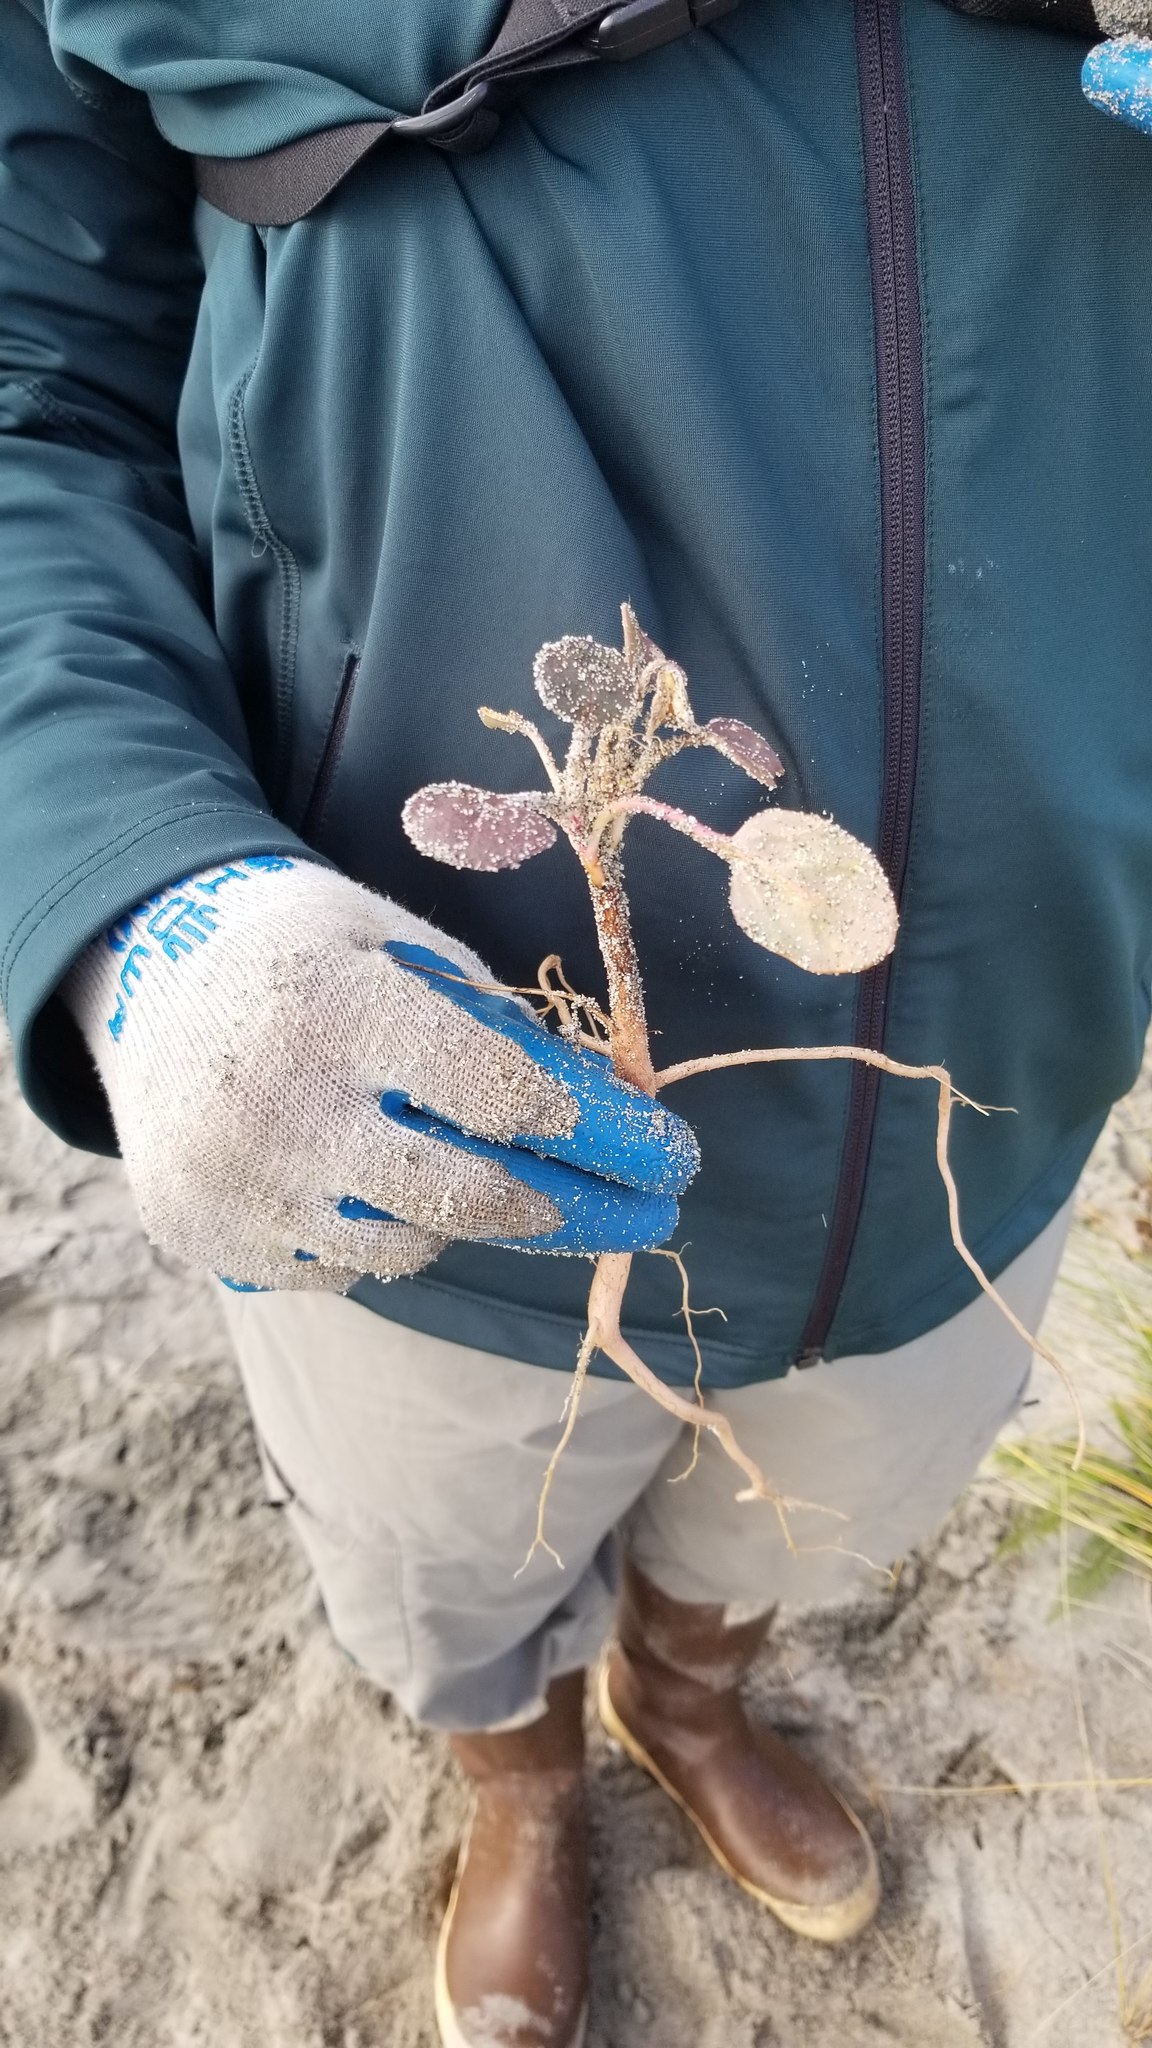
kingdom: Plantae
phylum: Tracheophyta
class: Magnoliopsida
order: Caryophyllales
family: Nyctaginaceae
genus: Abronia
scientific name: Abronia latifolia
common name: Yellow sand-verbena
